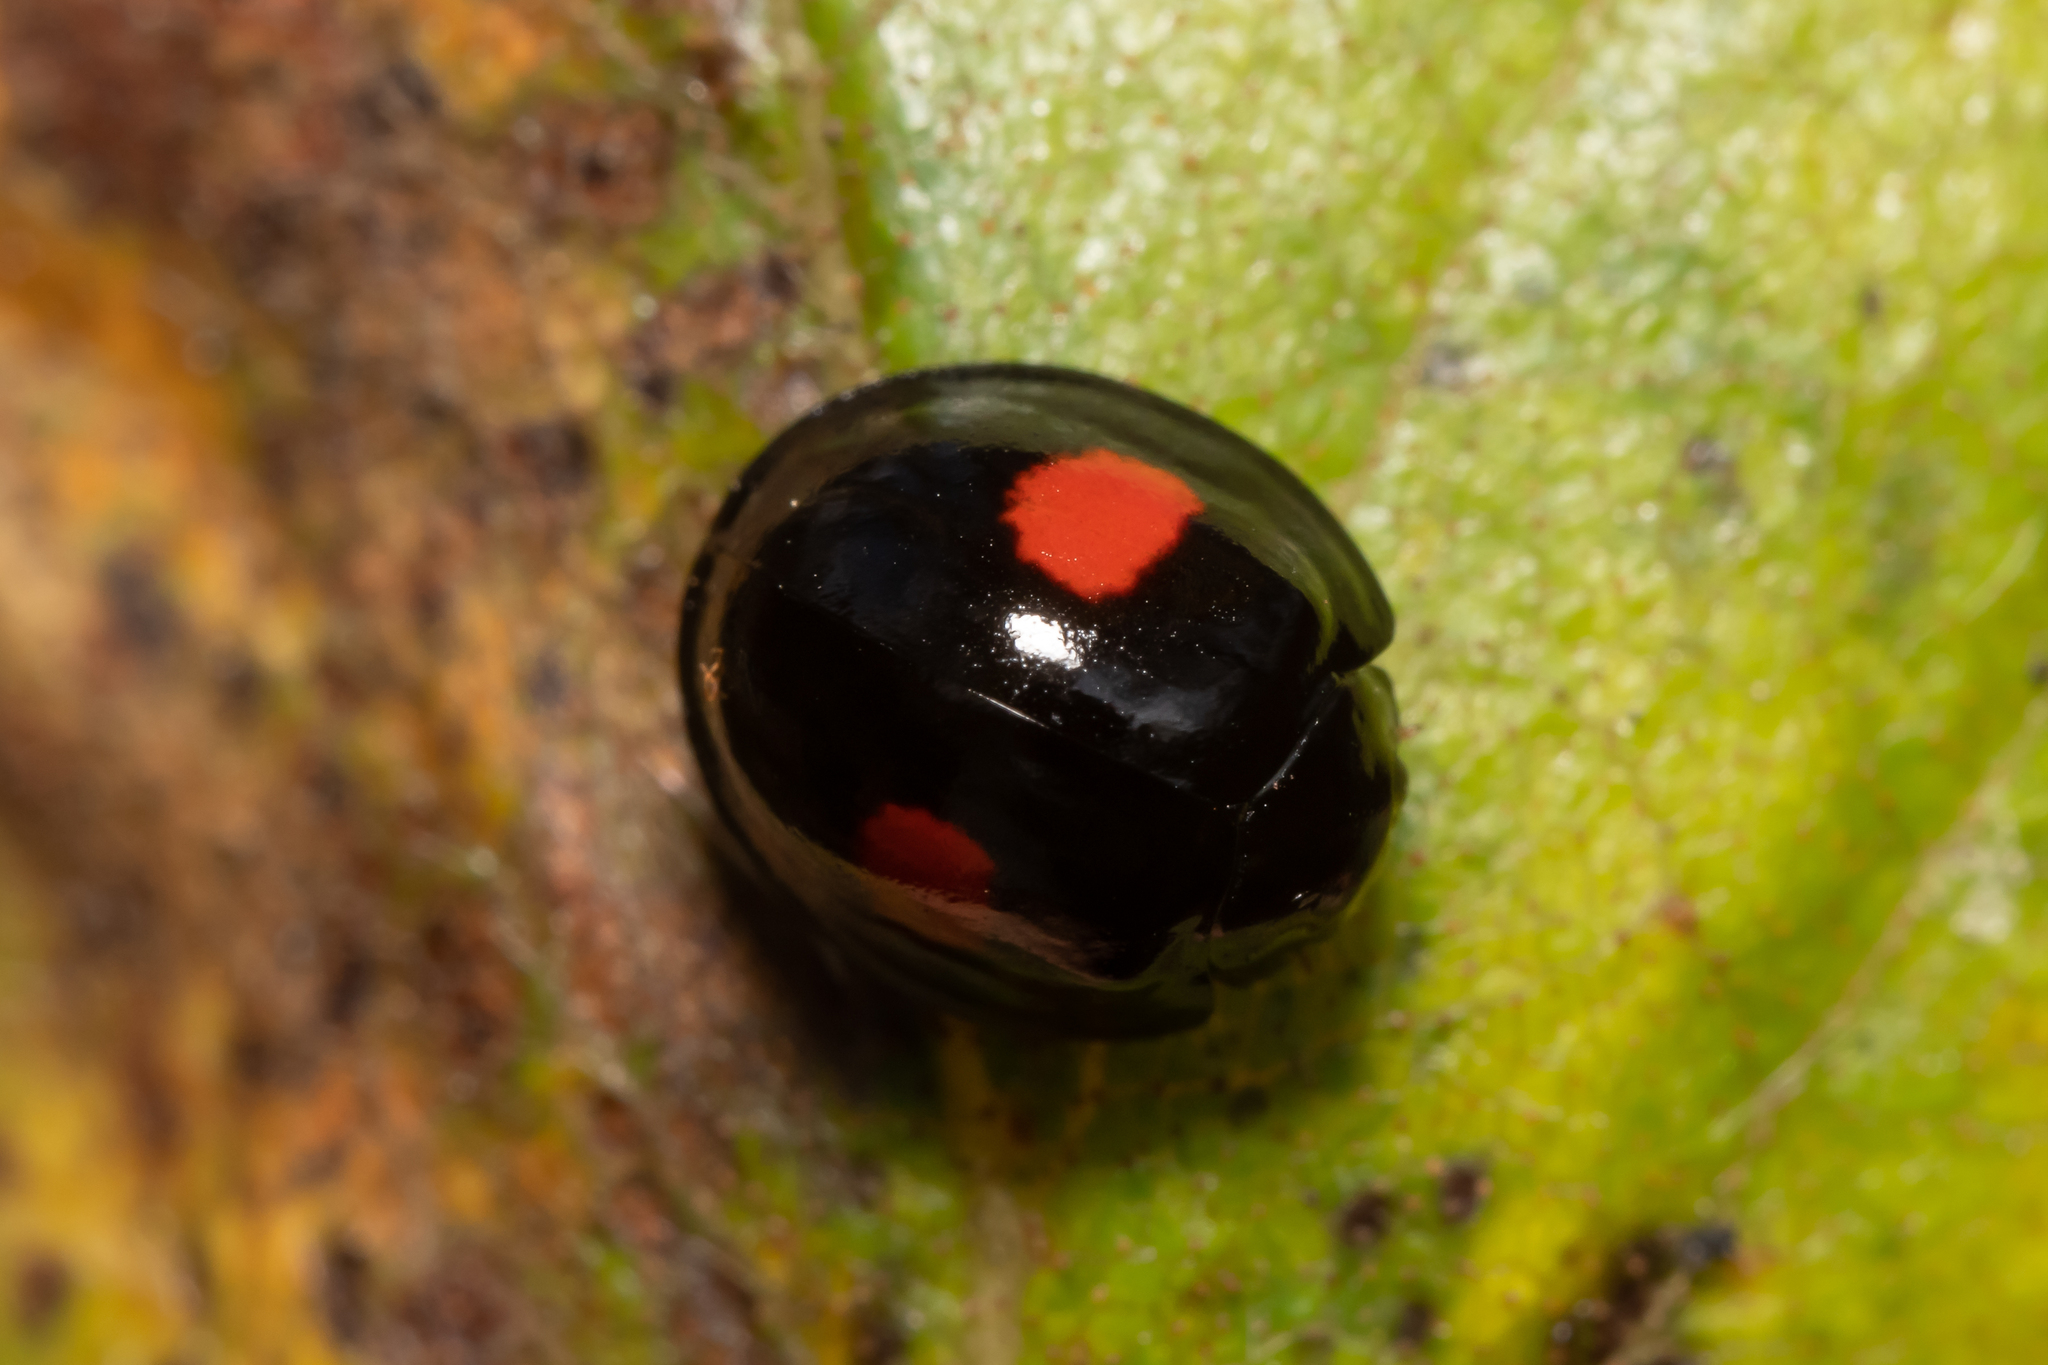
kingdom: Animalia
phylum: Arthropoda
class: Insecta
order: Coleoptera
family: Coccinellidae
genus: Chilocorus
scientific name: Chilocorus renipustulatus
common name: Kidney-spot ladybird
